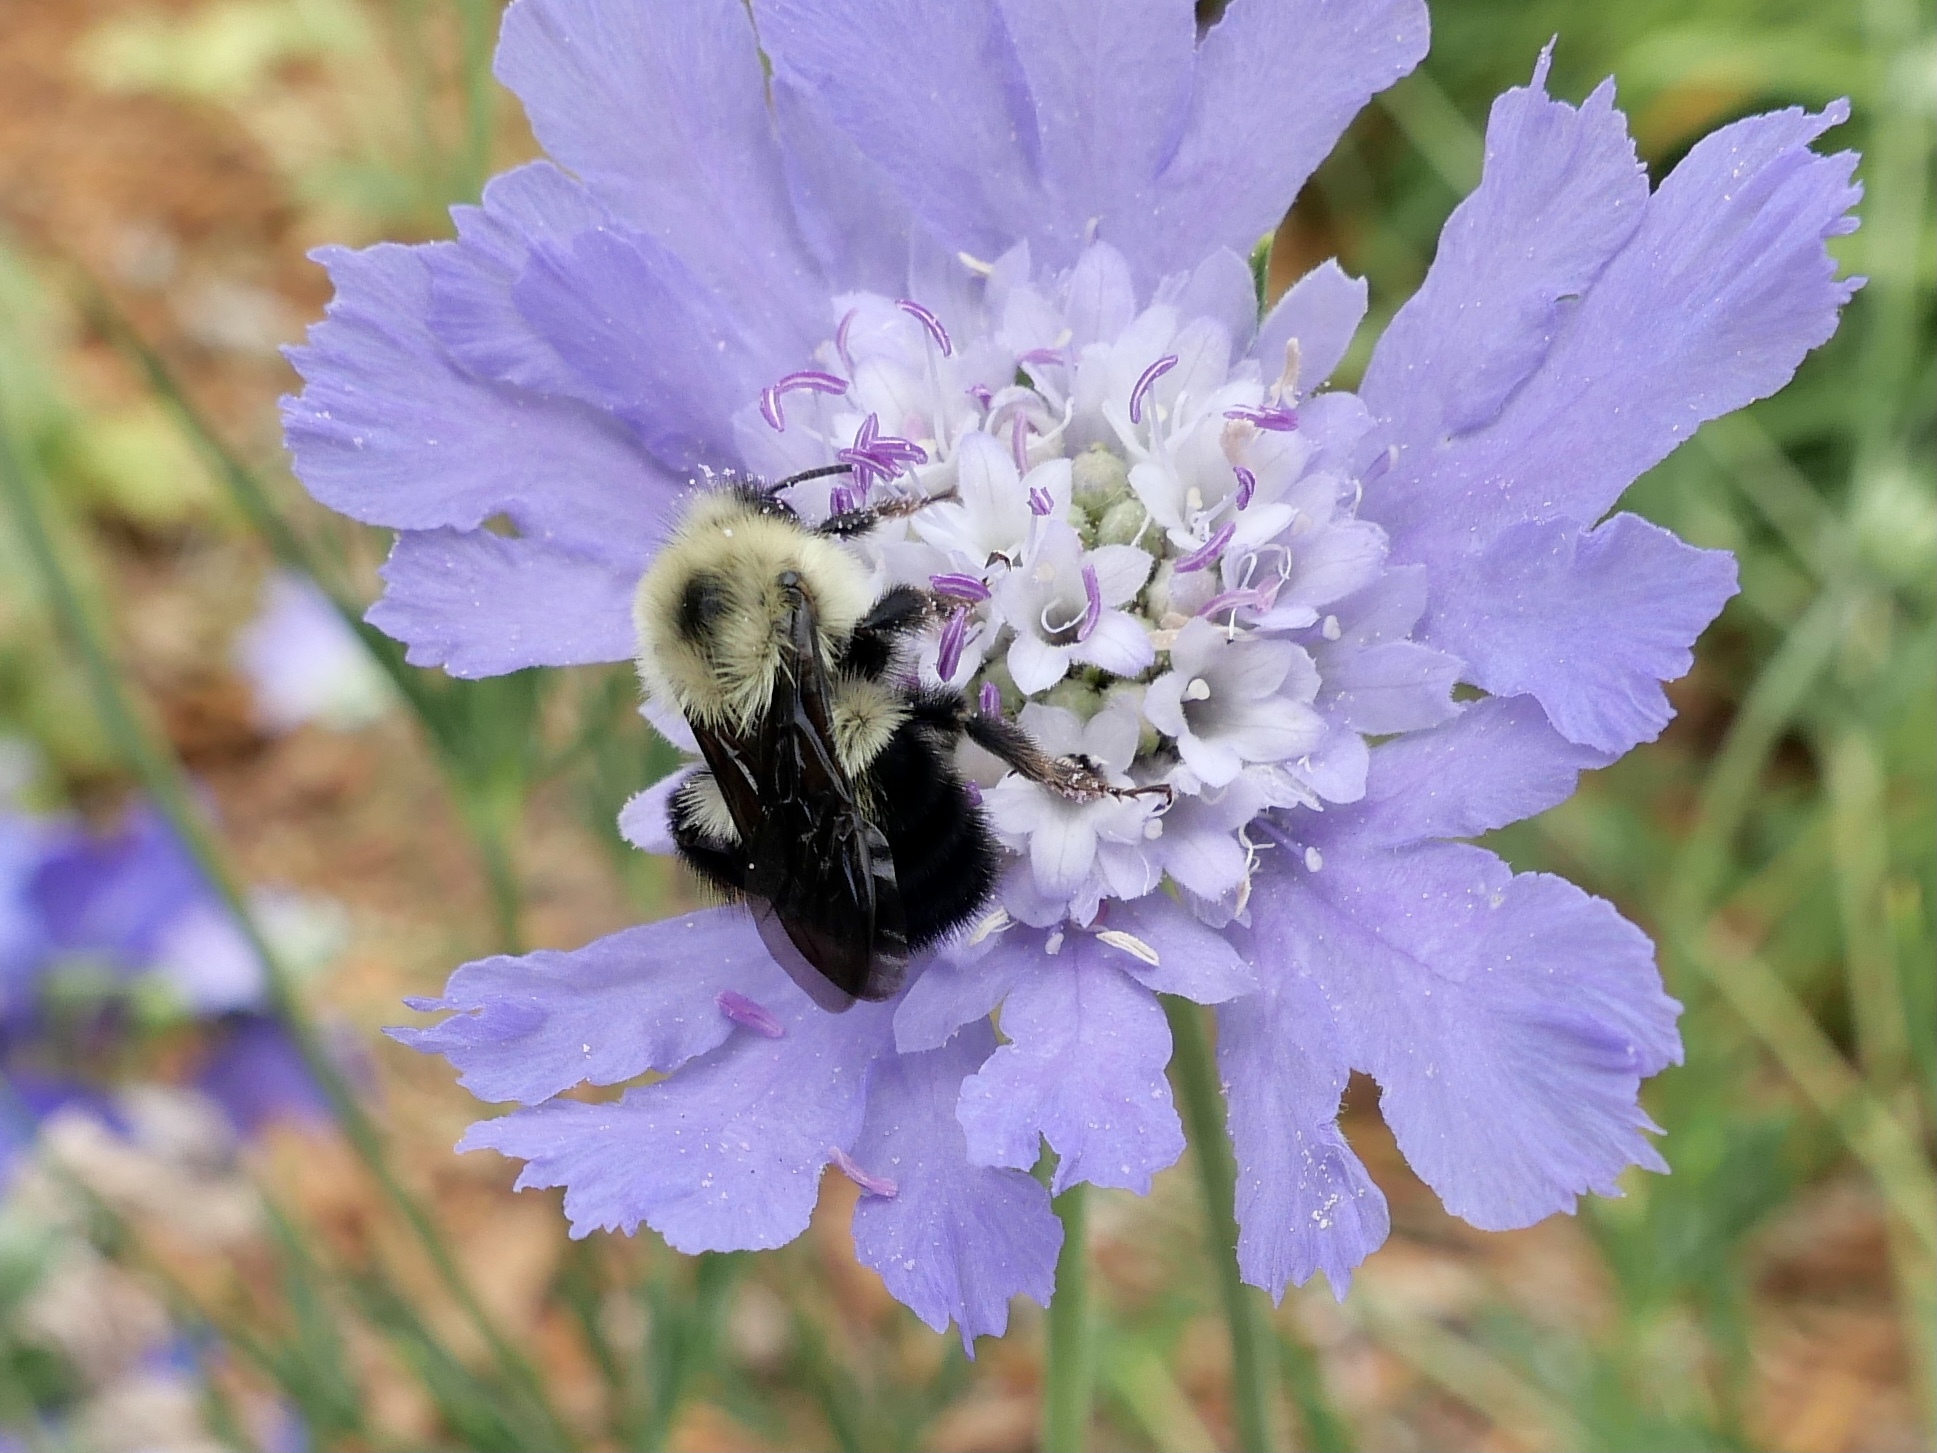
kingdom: Animalia
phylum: Arthropoda
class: Insecta
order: Hymenoptera
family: Apidae
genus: Bombus
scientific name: Bombus bimaculatus
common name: Two-spotted bumble bee
